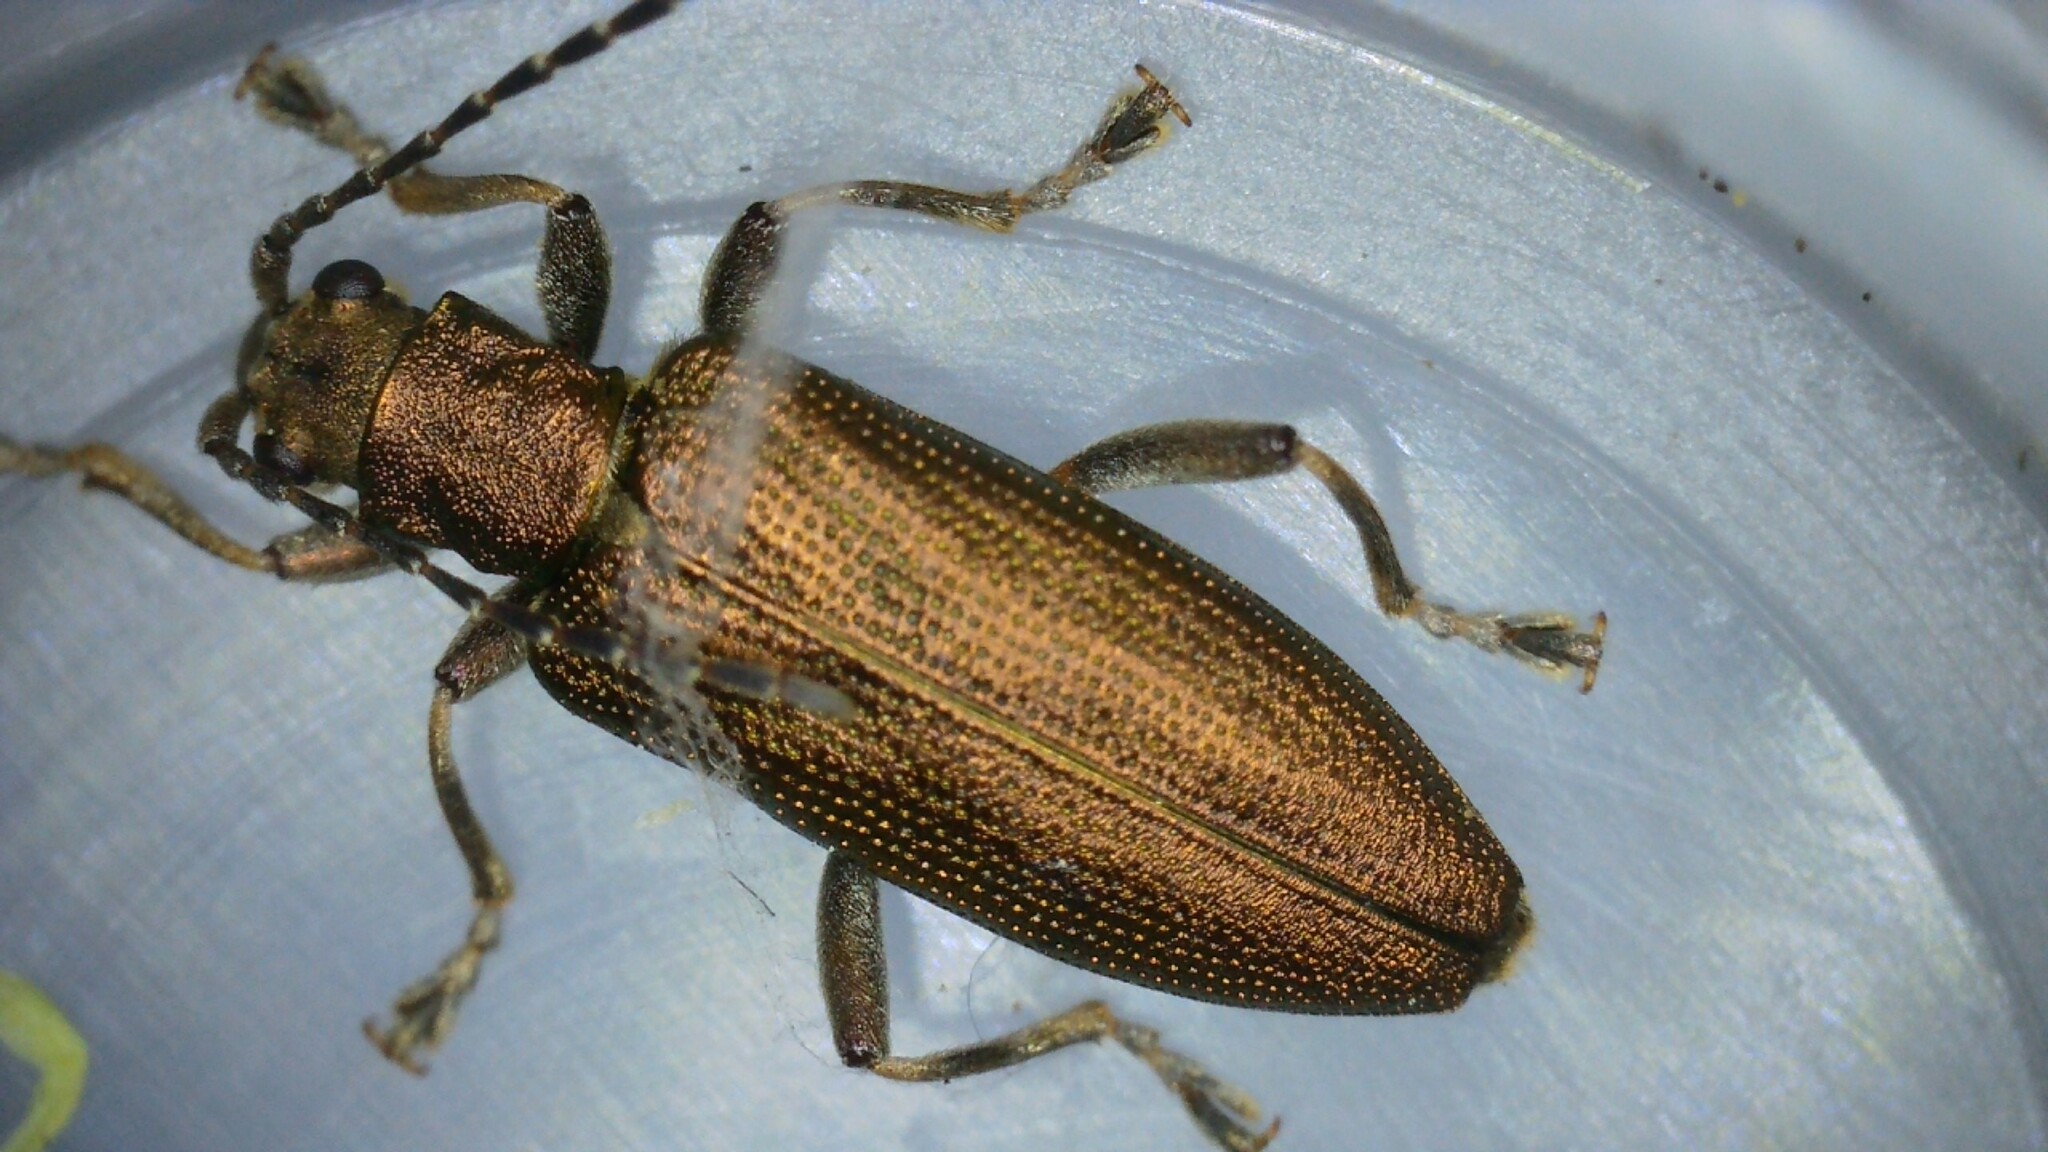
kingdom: Animalia
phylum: Arthropoda
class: Insecta
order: Coleoptera
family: Chrysomelidae
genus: Donacia
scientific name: Donacia simplex
